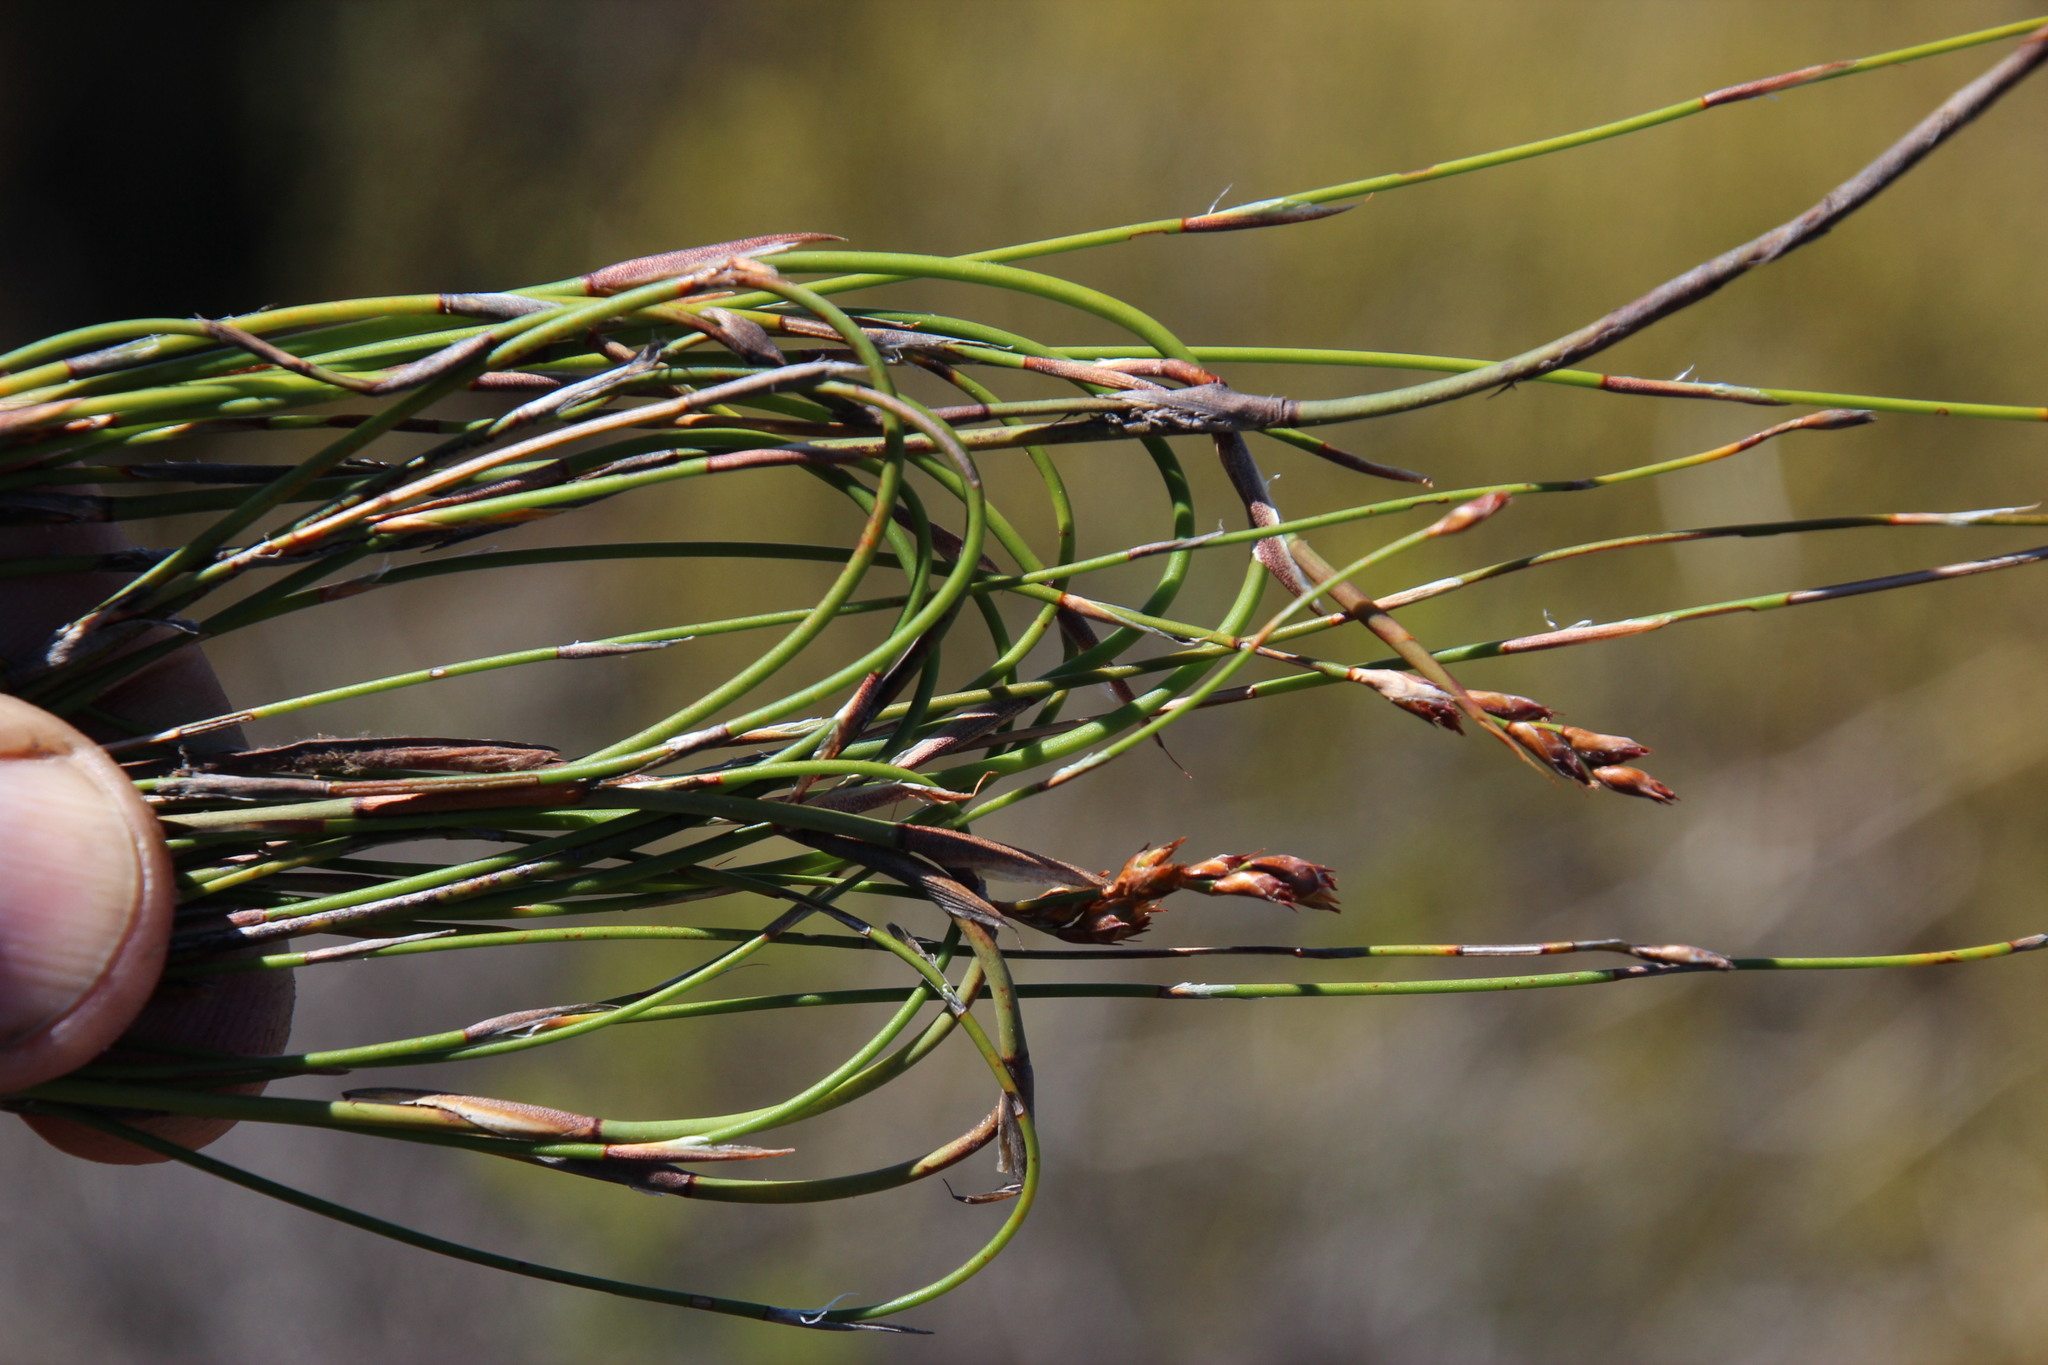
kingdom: Plantae
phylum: Tracheophyta
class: Liliopsida
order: Poales
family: Restionaceae
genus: Restio
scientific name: Restio sieberi
